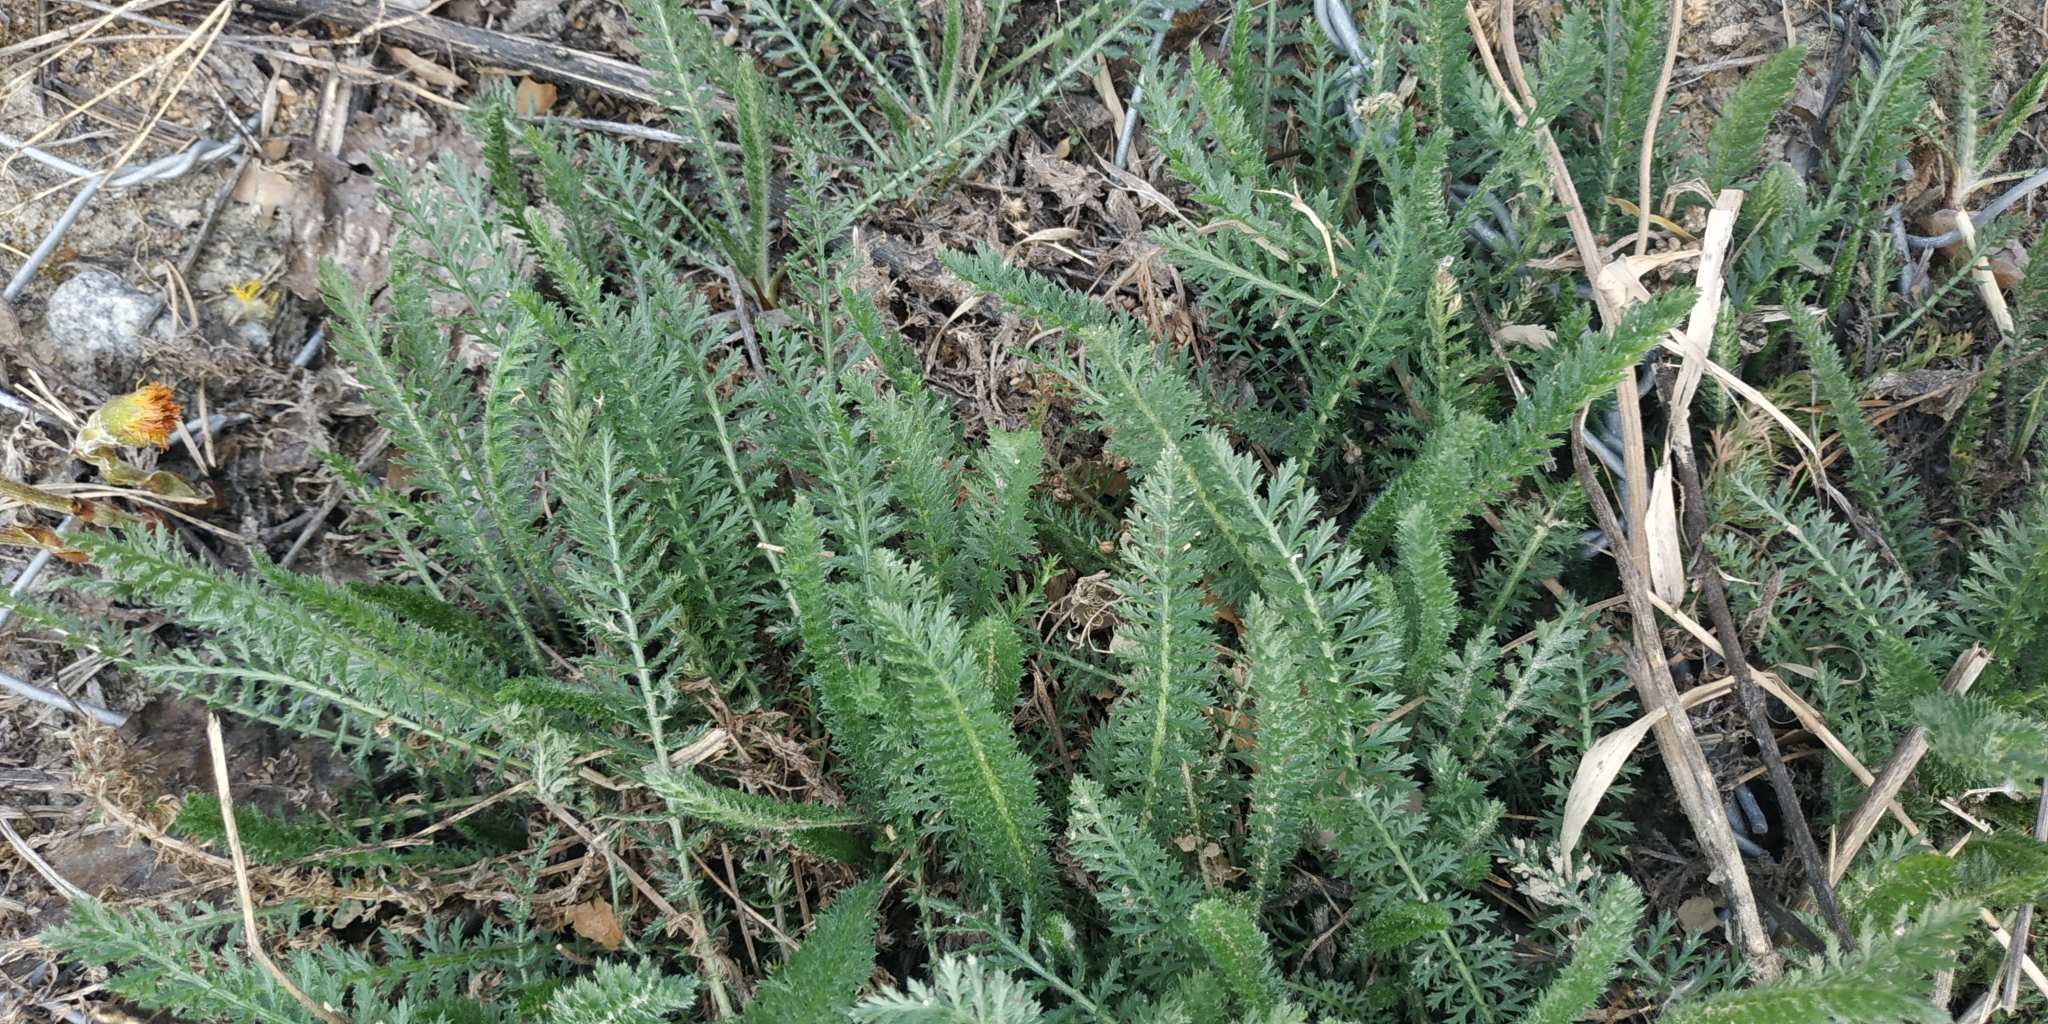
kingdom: Plantae
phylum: Tracheophyta
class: Magnoliopsida
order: Asterales
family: Asteraceae
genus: Achillea
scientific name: Achillea millefolium
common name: Yarrow
